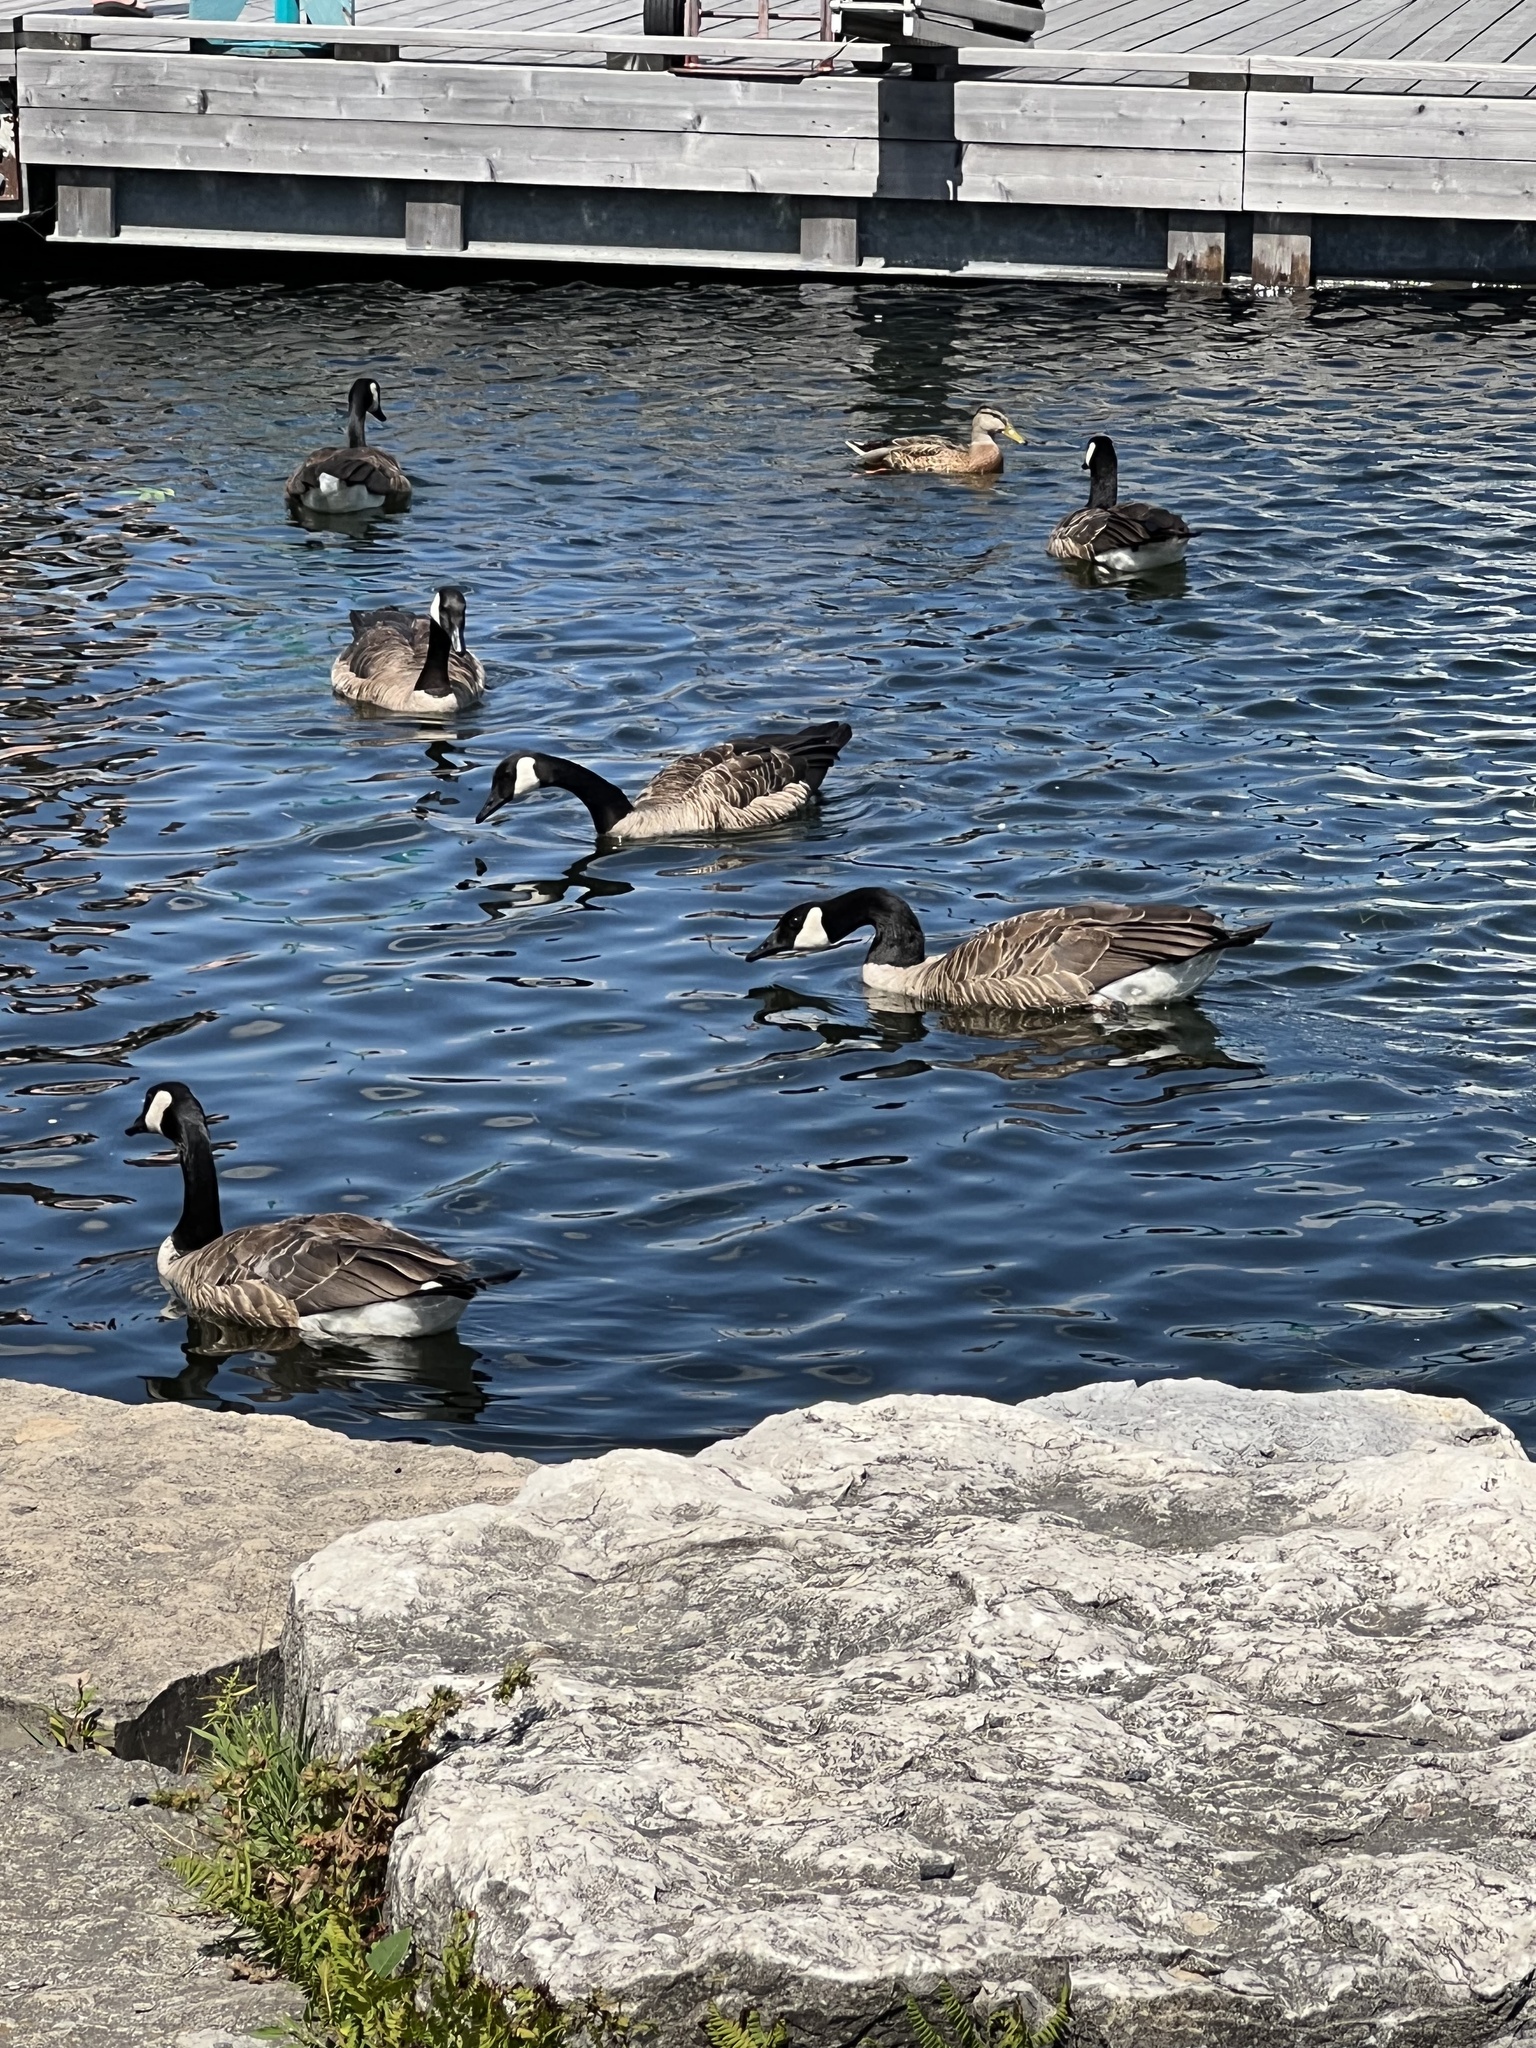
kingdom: Animalia
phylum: Chordata
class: Aves
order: Anseriformes
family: Anatidae
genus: Branta
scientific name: Branta canadensis
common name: Canada goose
